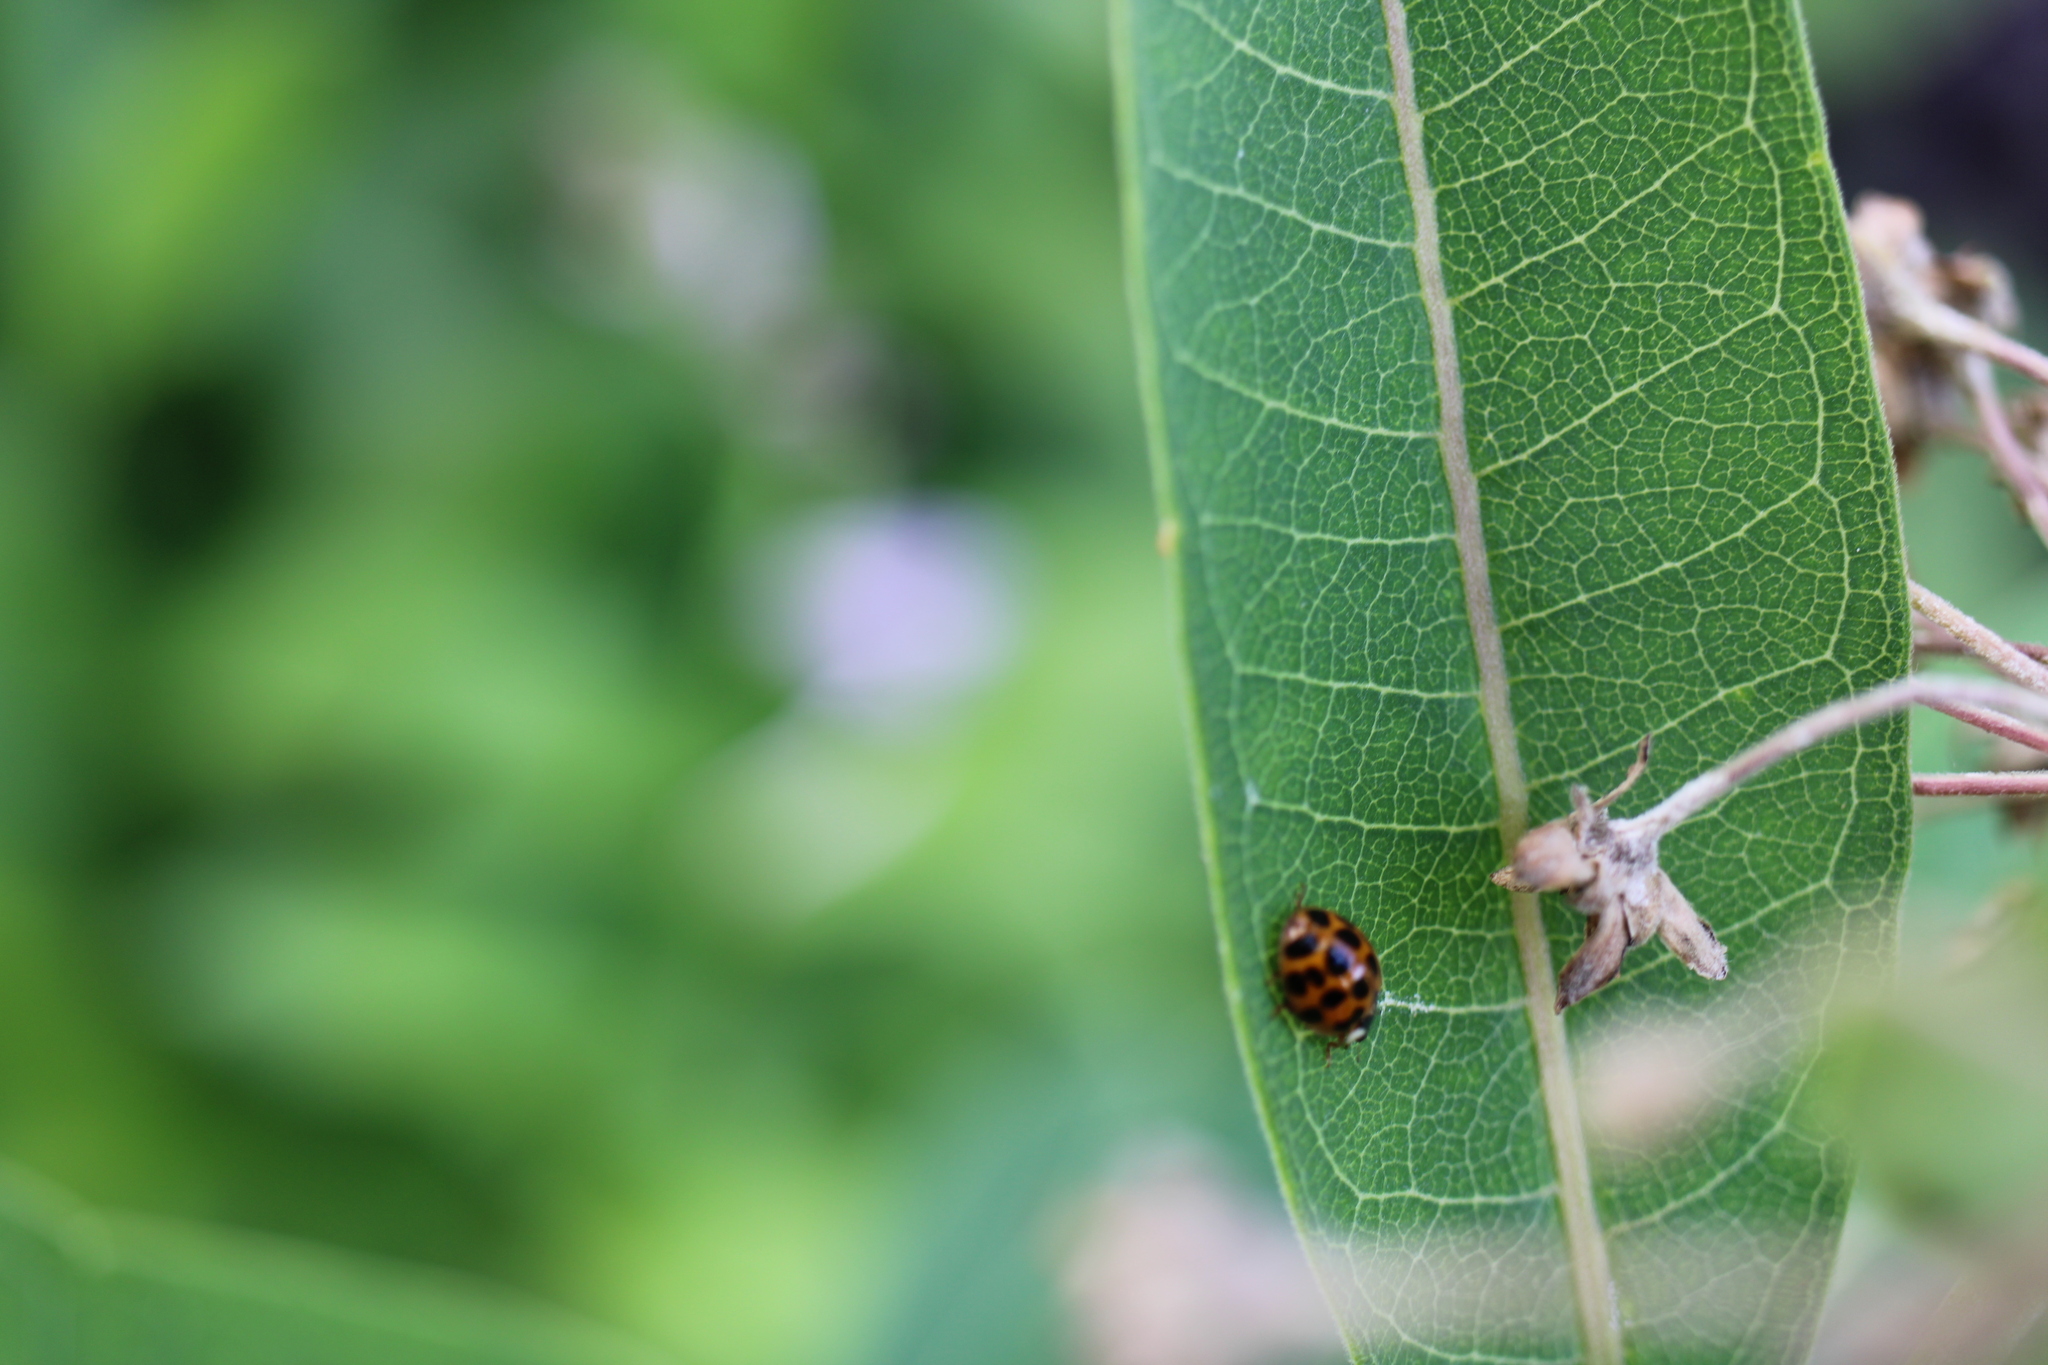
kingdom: Animalia
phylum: Arthropoda
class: Insecta
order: Coleoptera
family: Coccinellidae
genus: Harmonia
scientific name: Harmonia axyridis
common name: Harlequin ladybird
